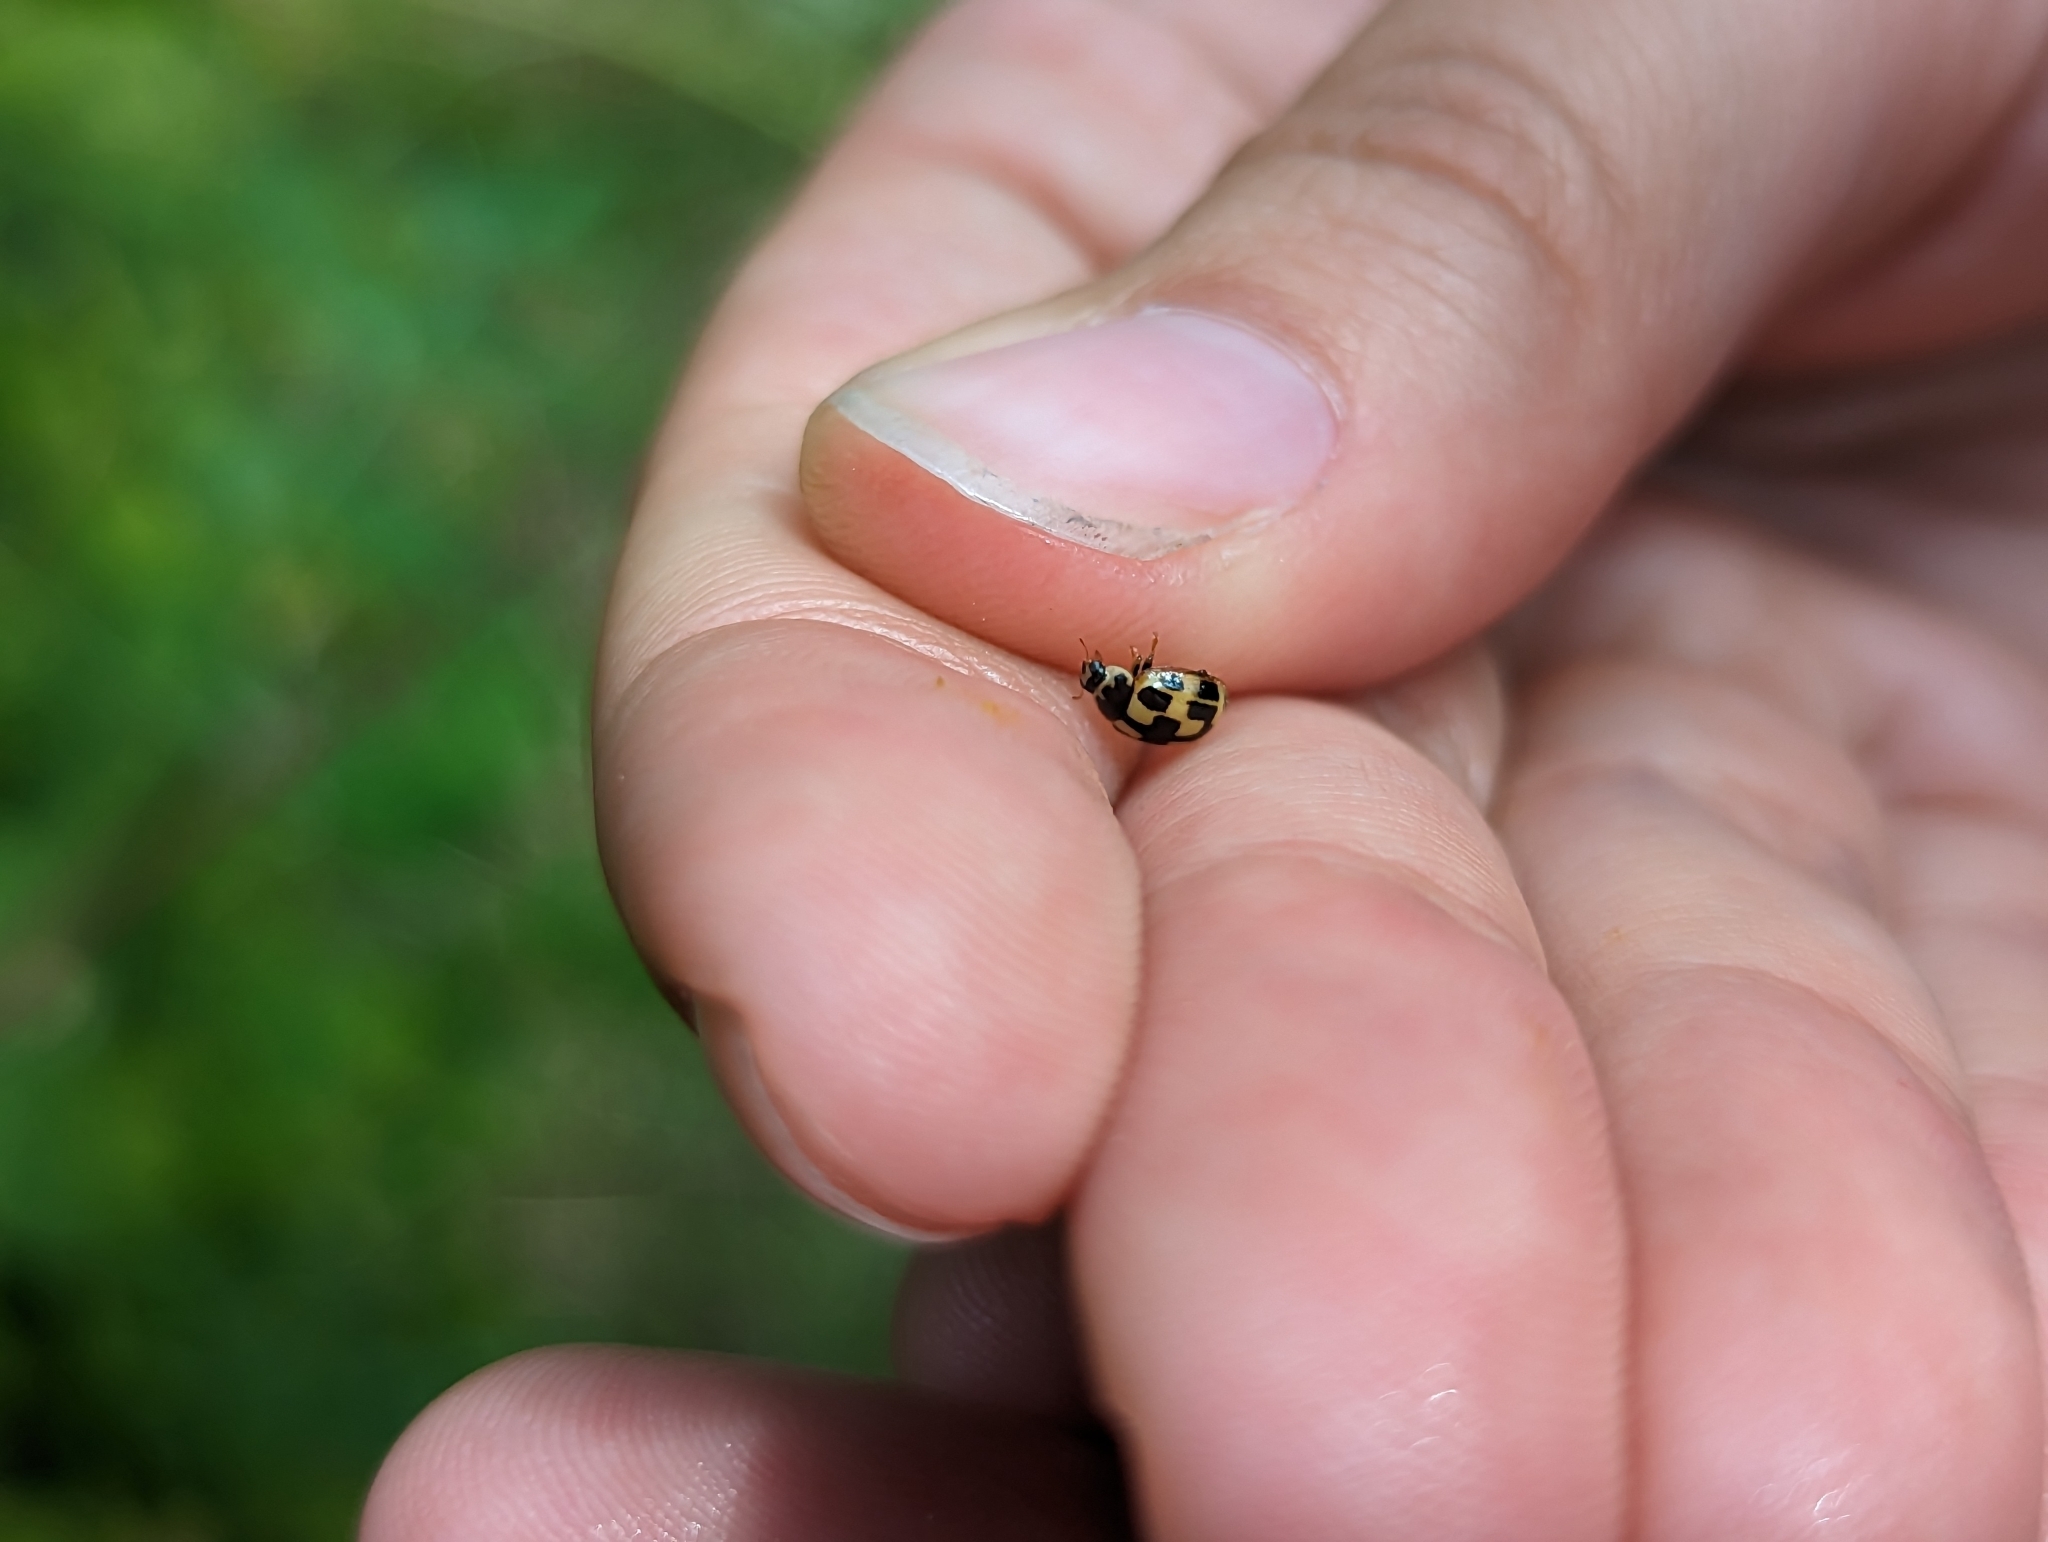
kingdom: Animalia
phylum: Arthropoda
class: Insecta
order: Coleoptera
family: Coccinellidae
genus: Propylaea
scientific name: Propylaea quatuordecimpunctata
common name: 14-spotted ladybird beetle
